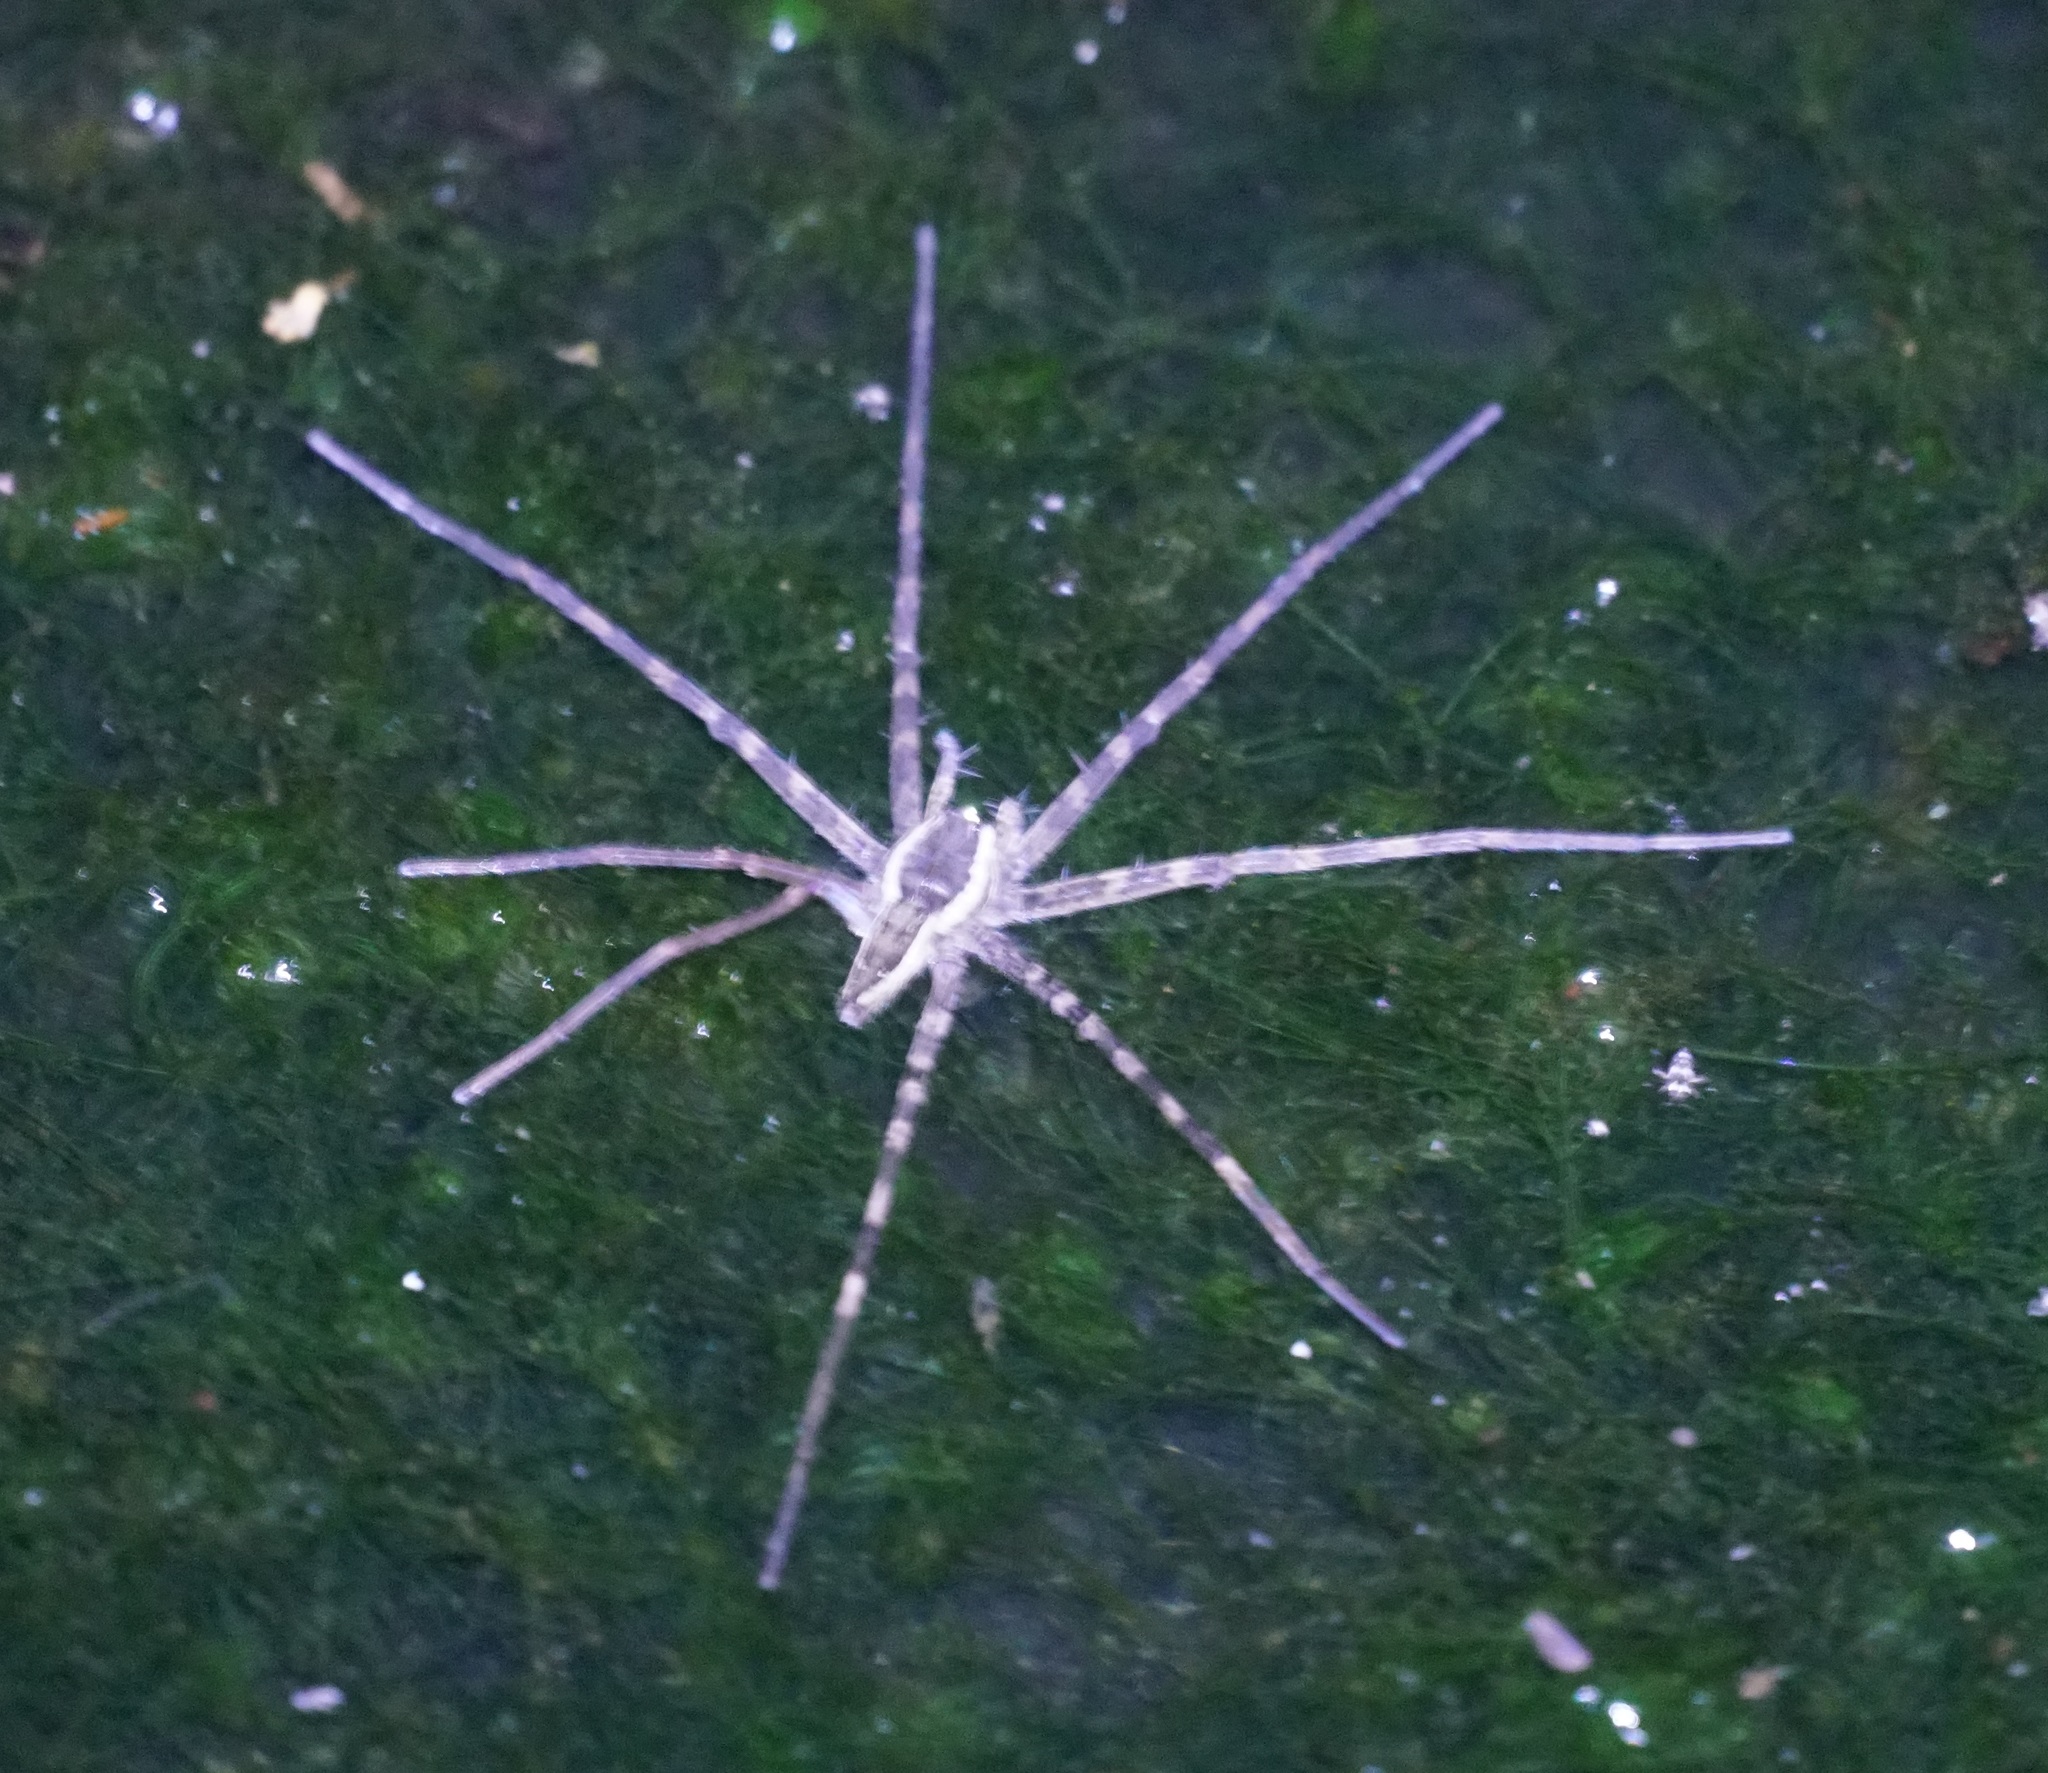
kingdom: Animalia
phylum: Arthropoda
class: Arachnida
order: Araneae
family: Pisauridae
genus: Megadolomedes
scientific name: Megadolomedes trux
